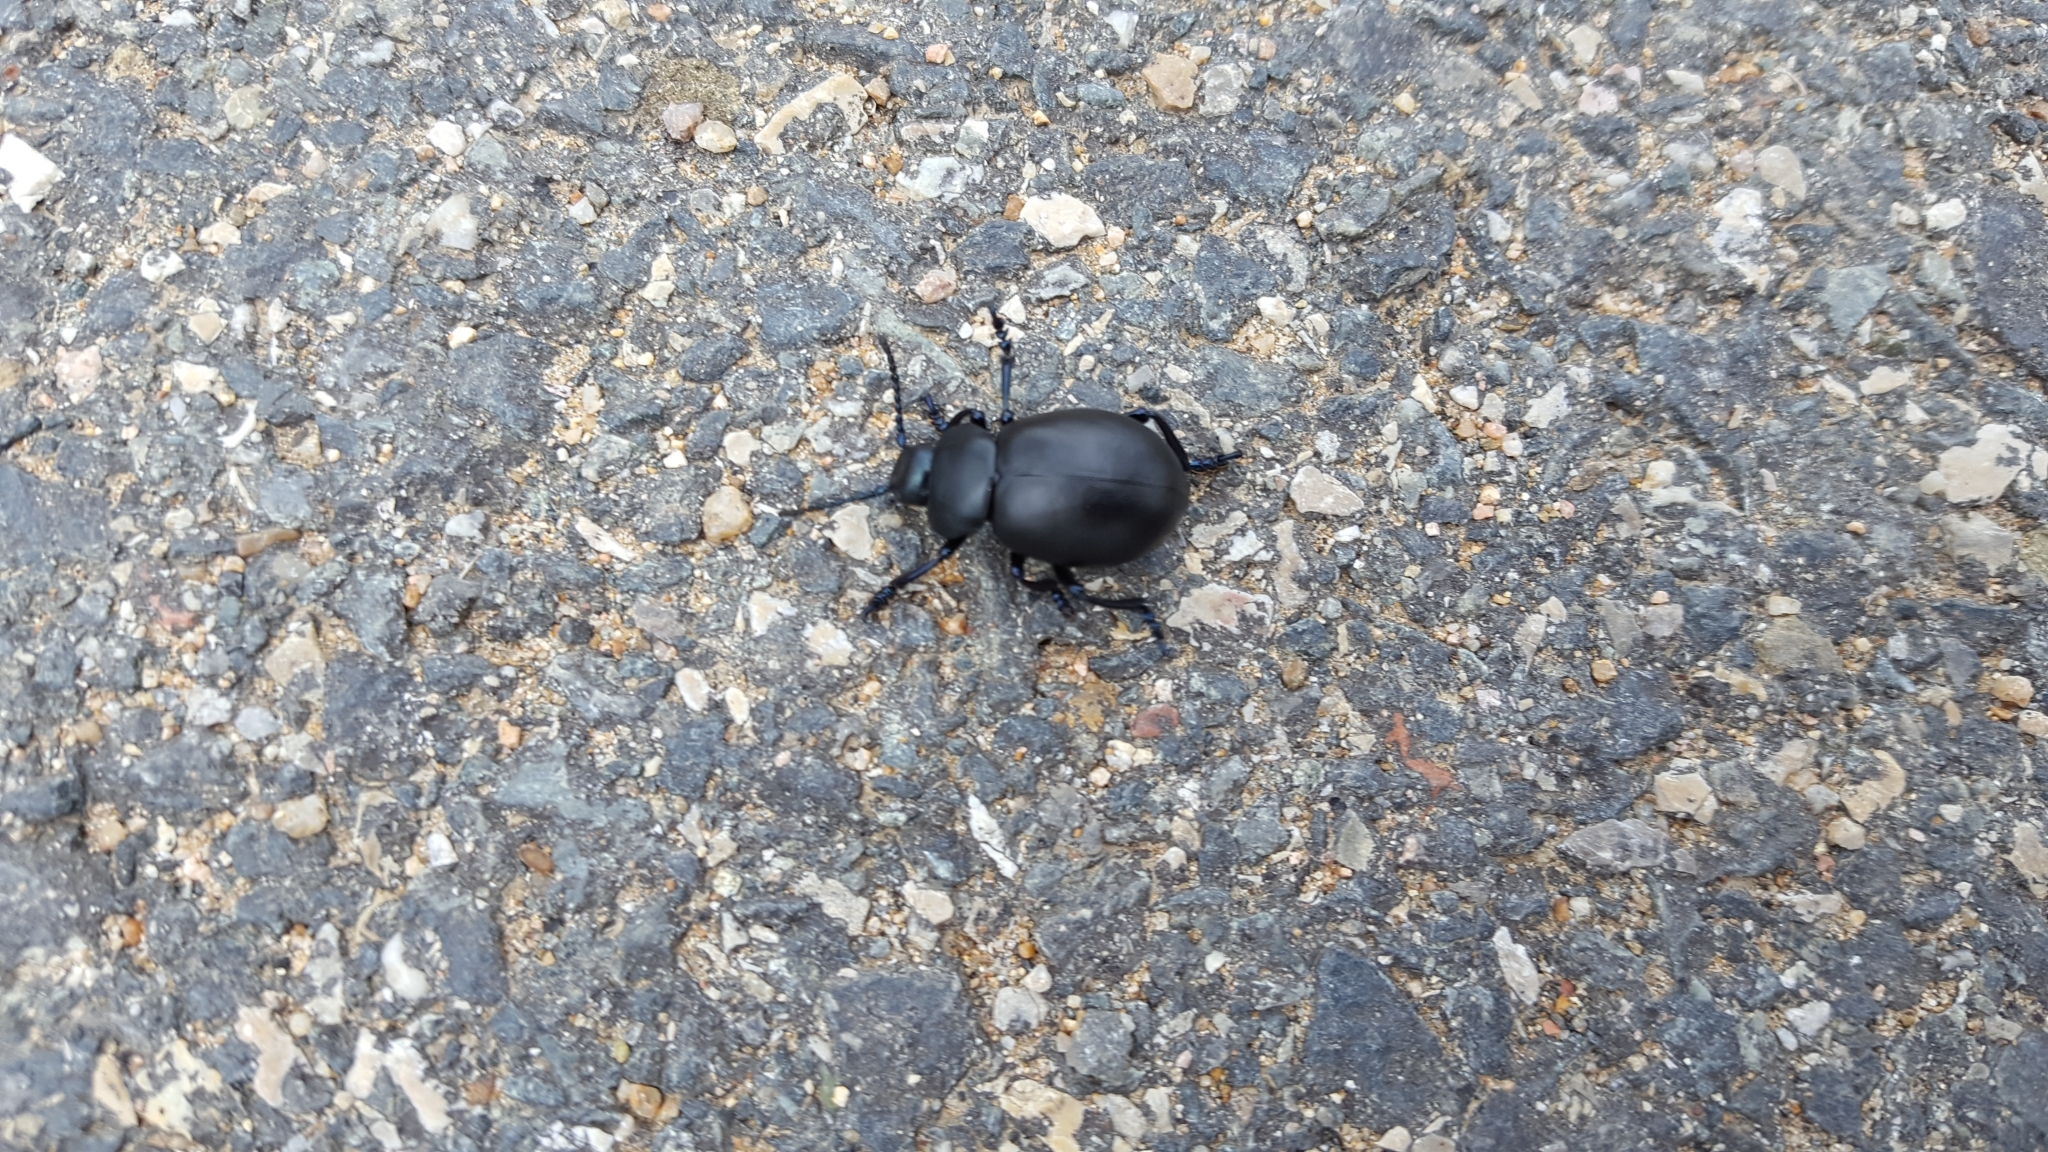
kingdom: Animalia
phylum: Arthropoda
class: Insecta
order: Coleoptera
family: Chrysomelidae
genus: Timarcha
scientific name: Timarcha tenebricosa
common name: Bloody-nosed beetle
